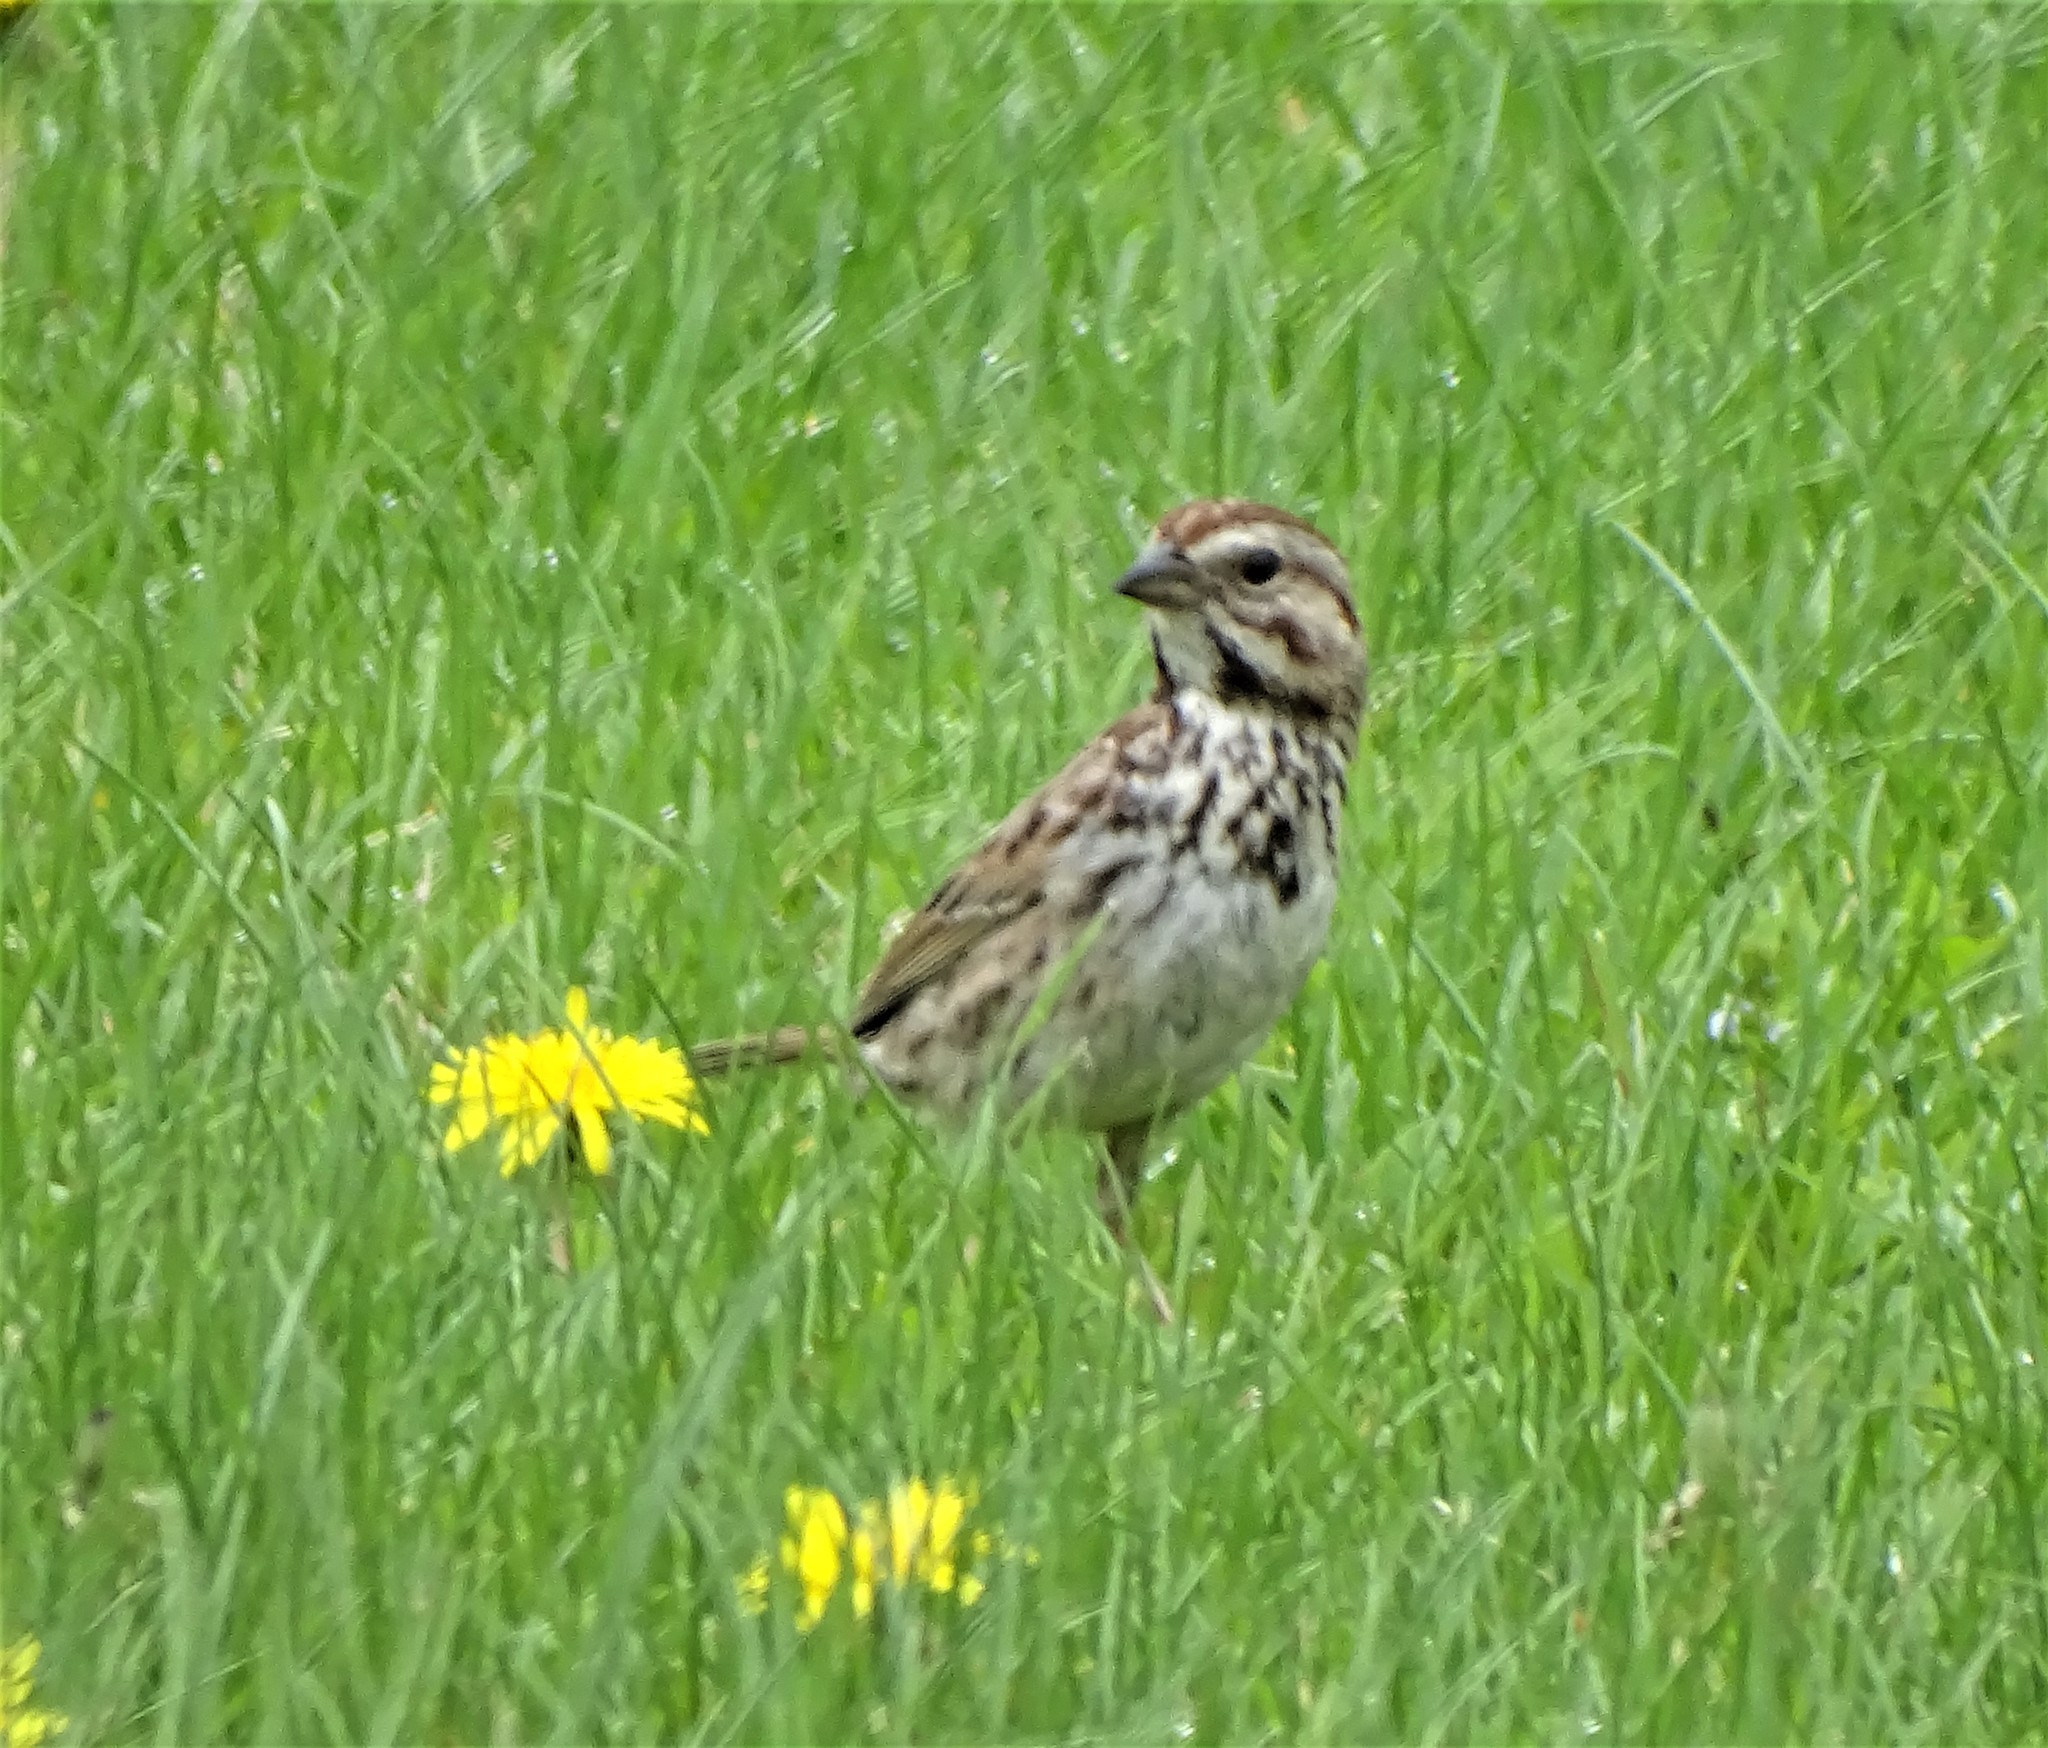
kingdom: Animalia
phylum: Chordata
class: Aves
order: Passeriformes
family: Passerellidae
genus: Melospiza
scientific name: Melospiza melodia
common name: Song sparrow
